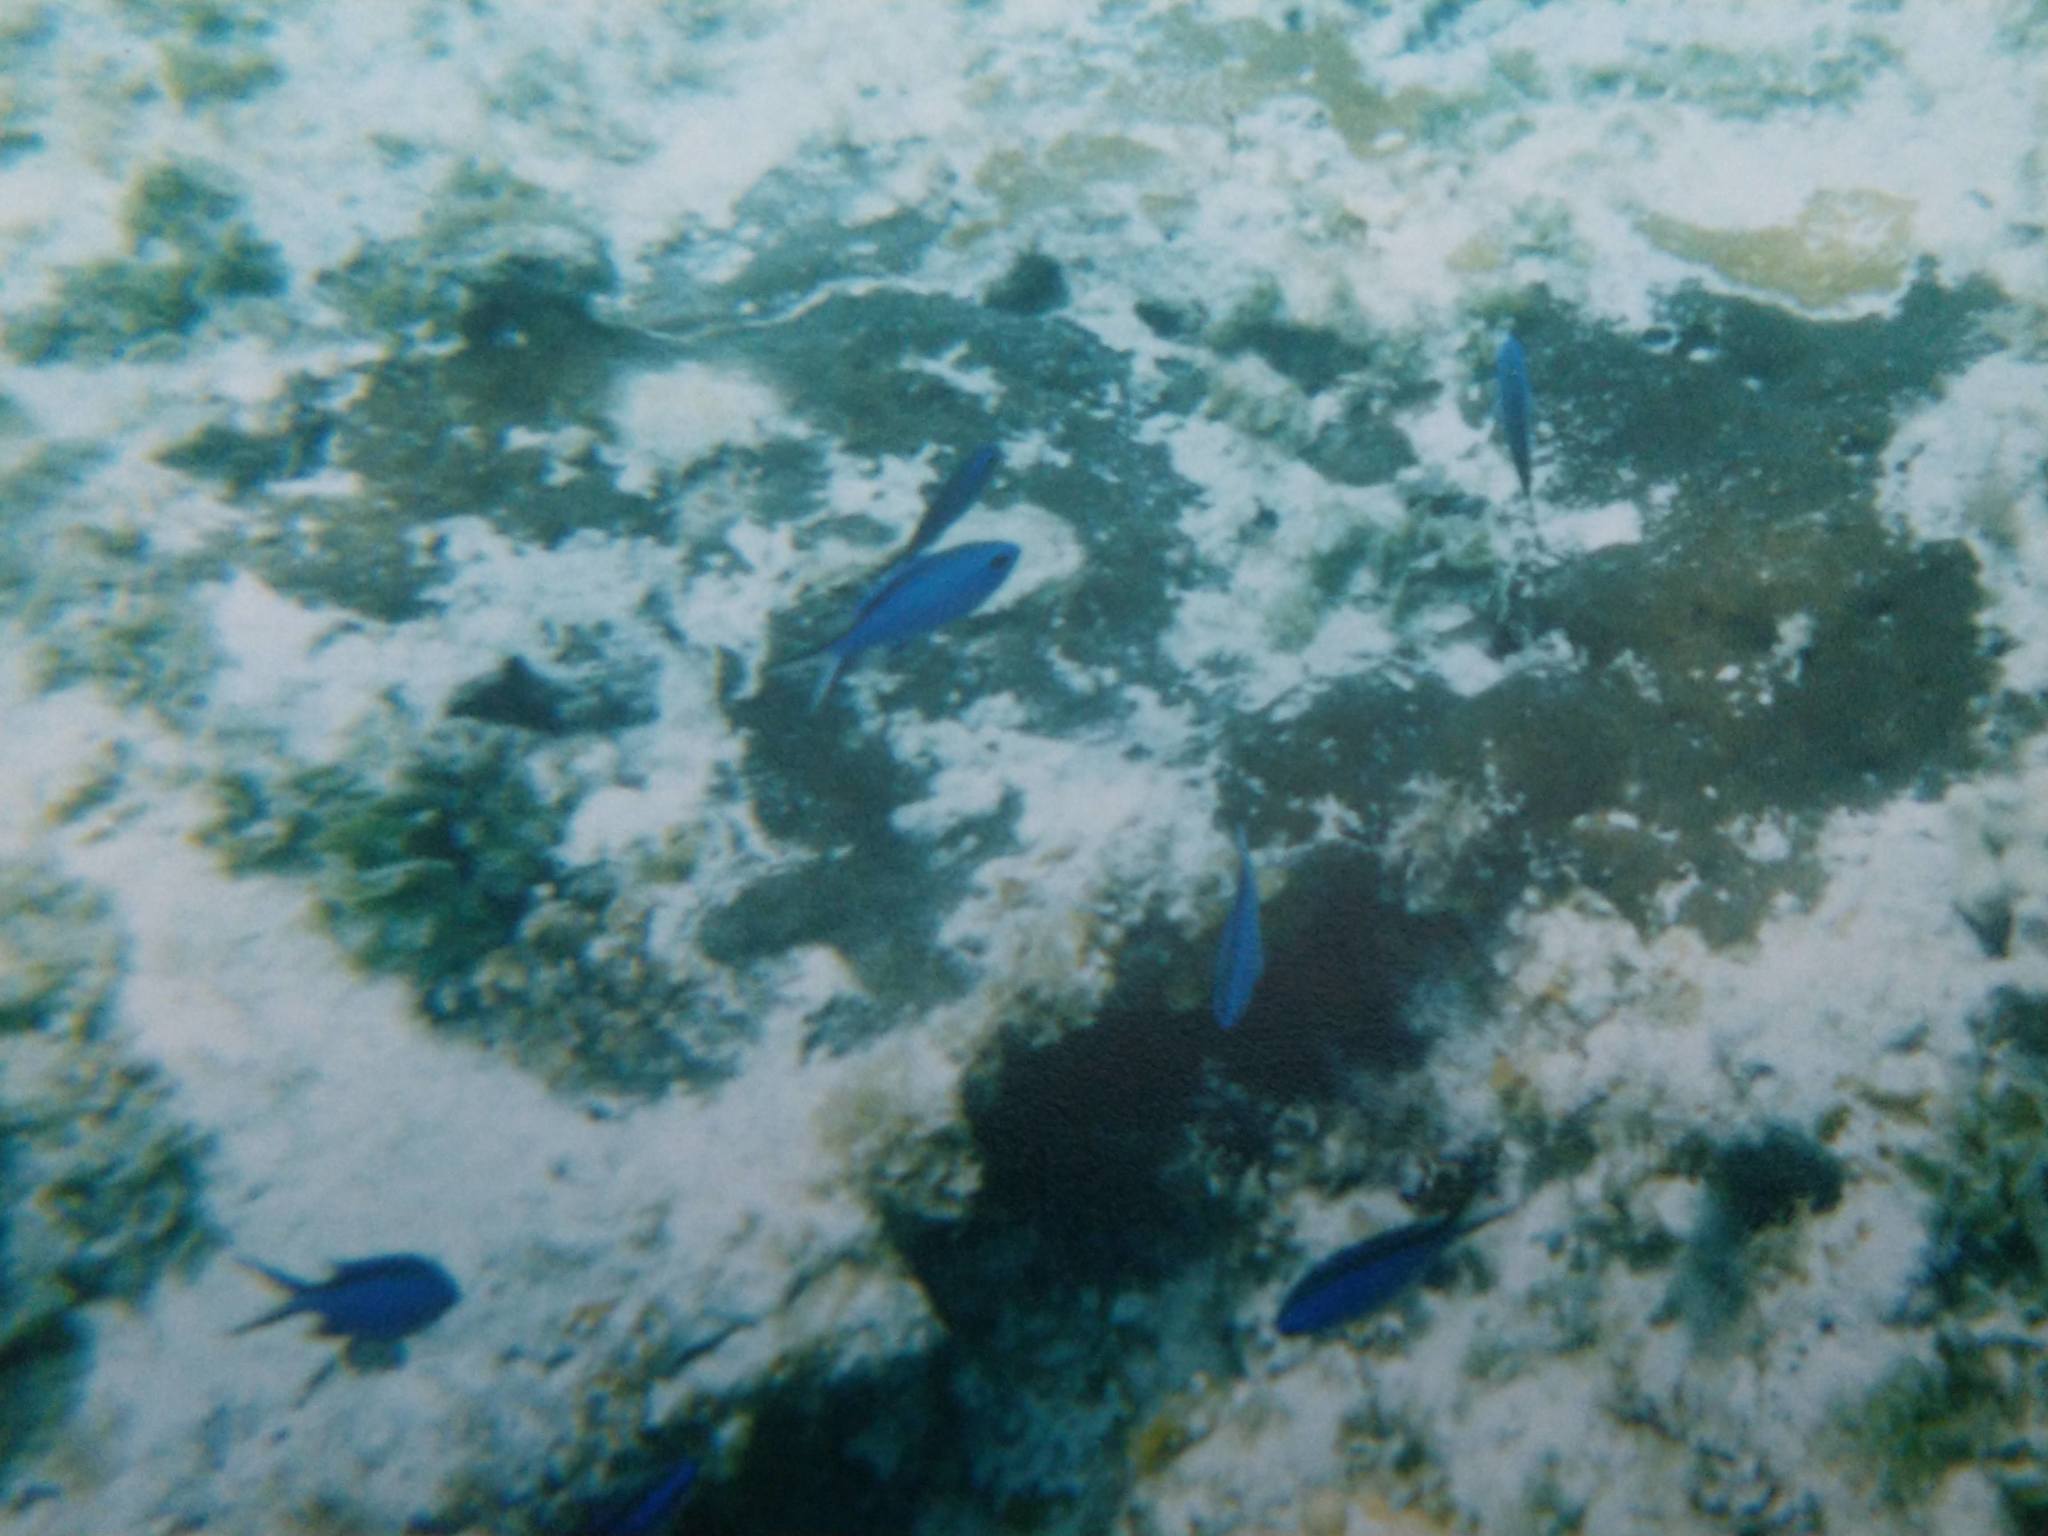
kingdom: Animalia
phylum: Chordata
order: Perciformes
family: Pomacentridae
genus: Chromis
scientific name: Chromis cyanea
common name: Blue chromis
